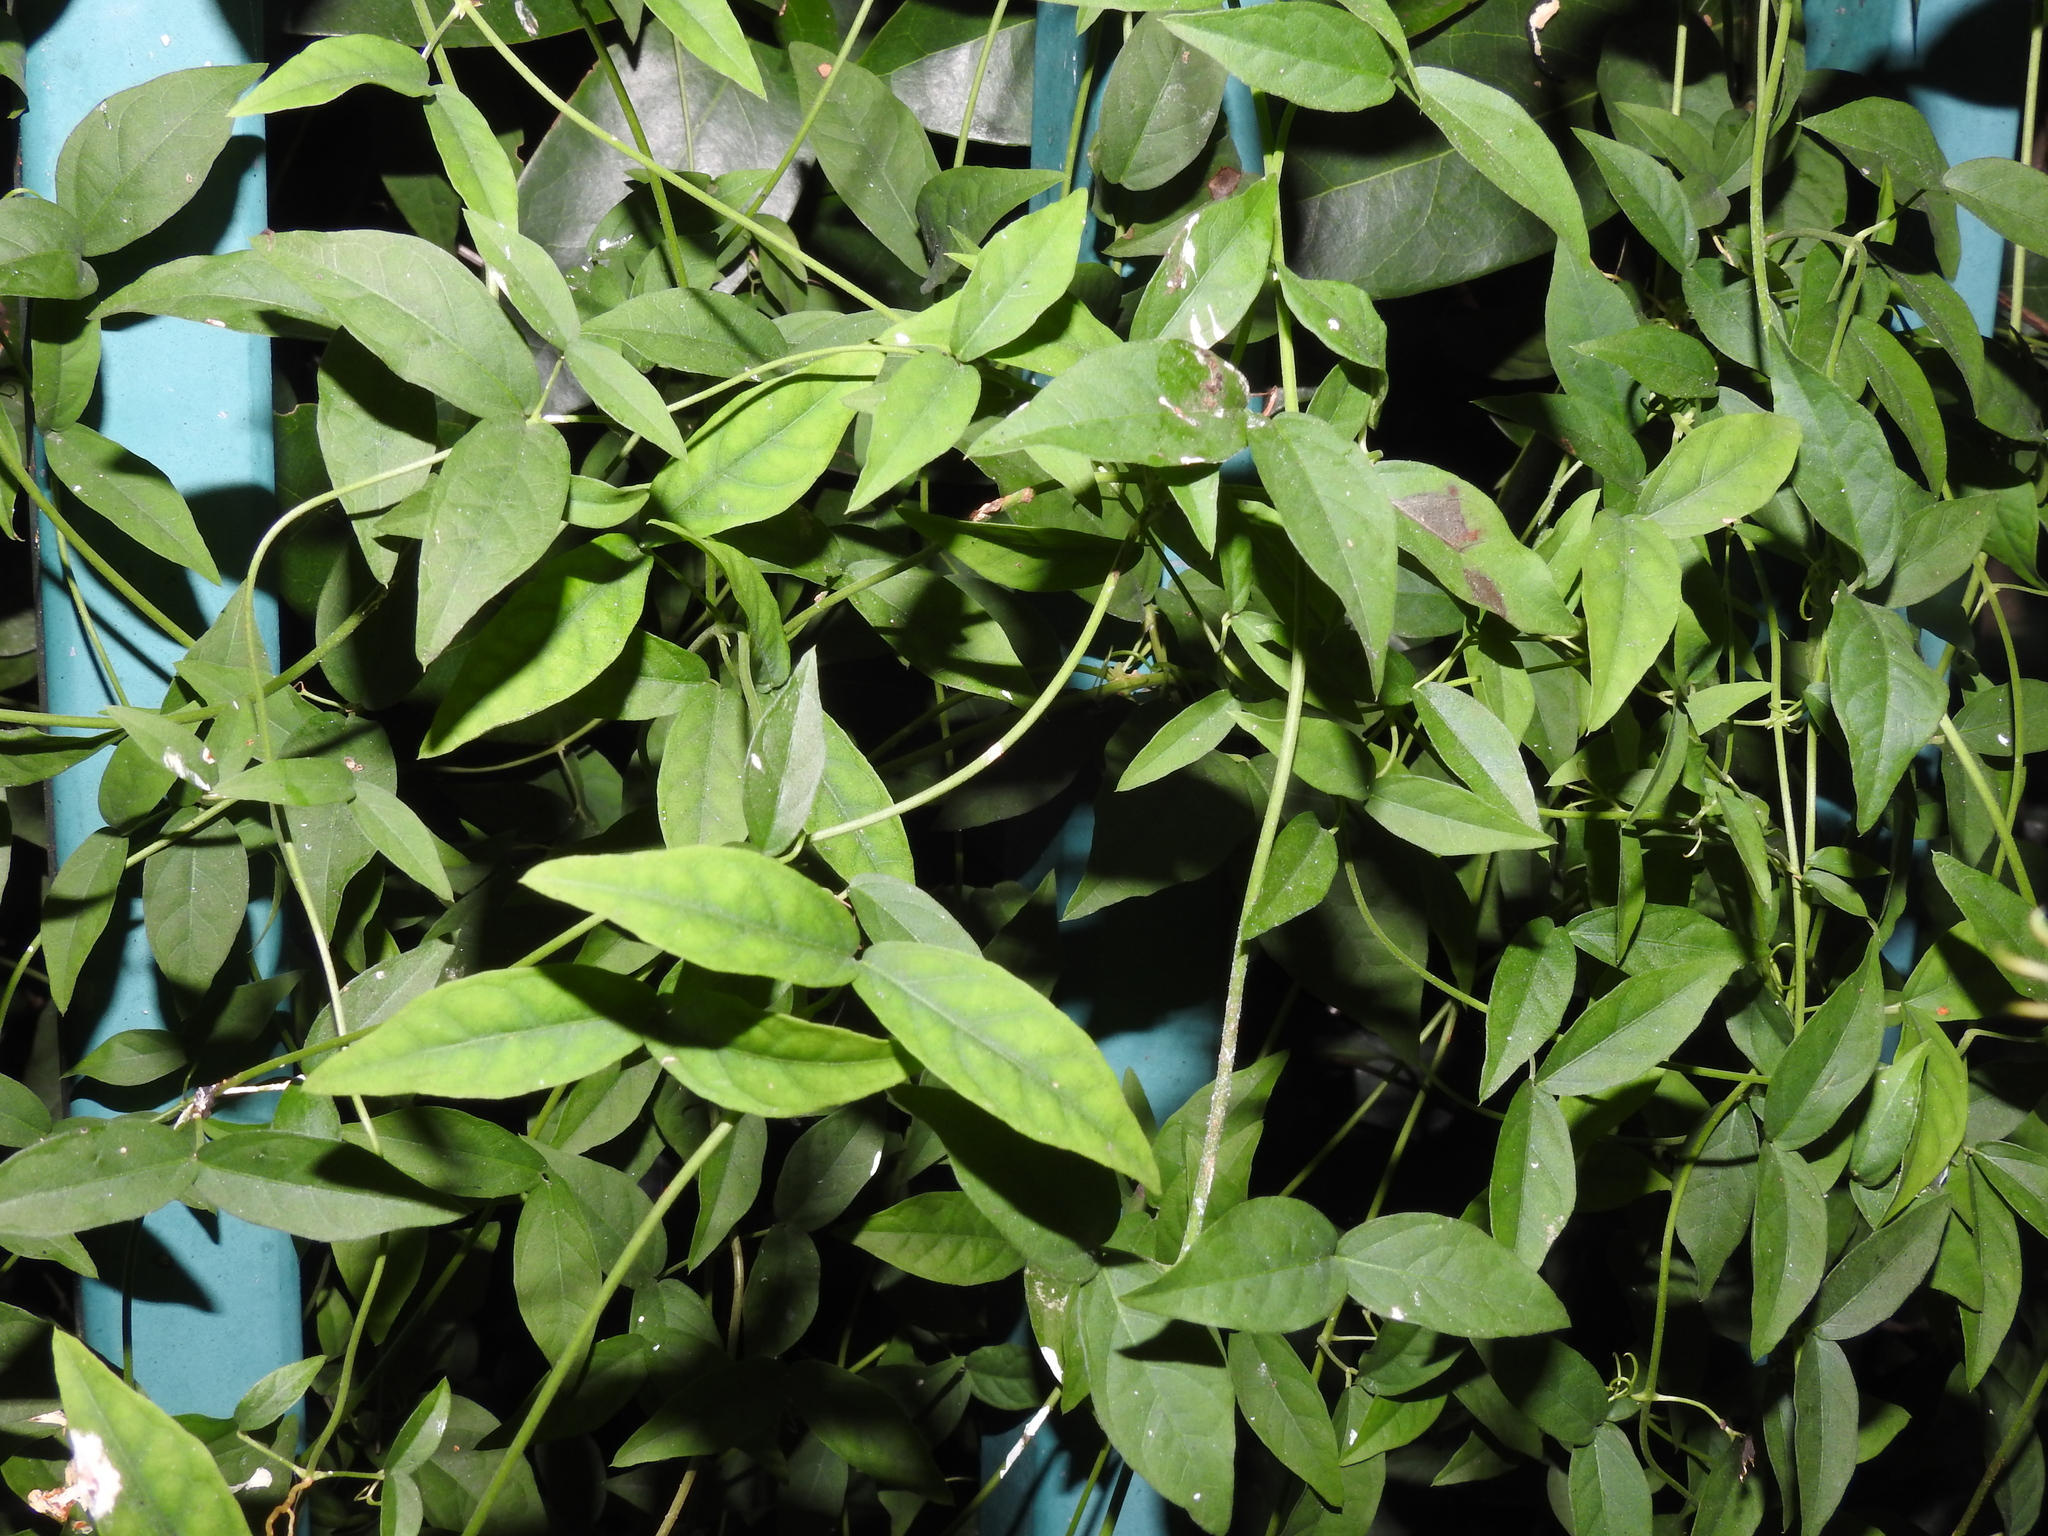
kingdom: Plantae
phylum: Tracheophyta
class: Magnoliopsida
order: Lamiales
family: Bignoniaceae
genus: Dolichandra
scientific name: Dolichandra unguis-cati
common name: Catclaw vine
